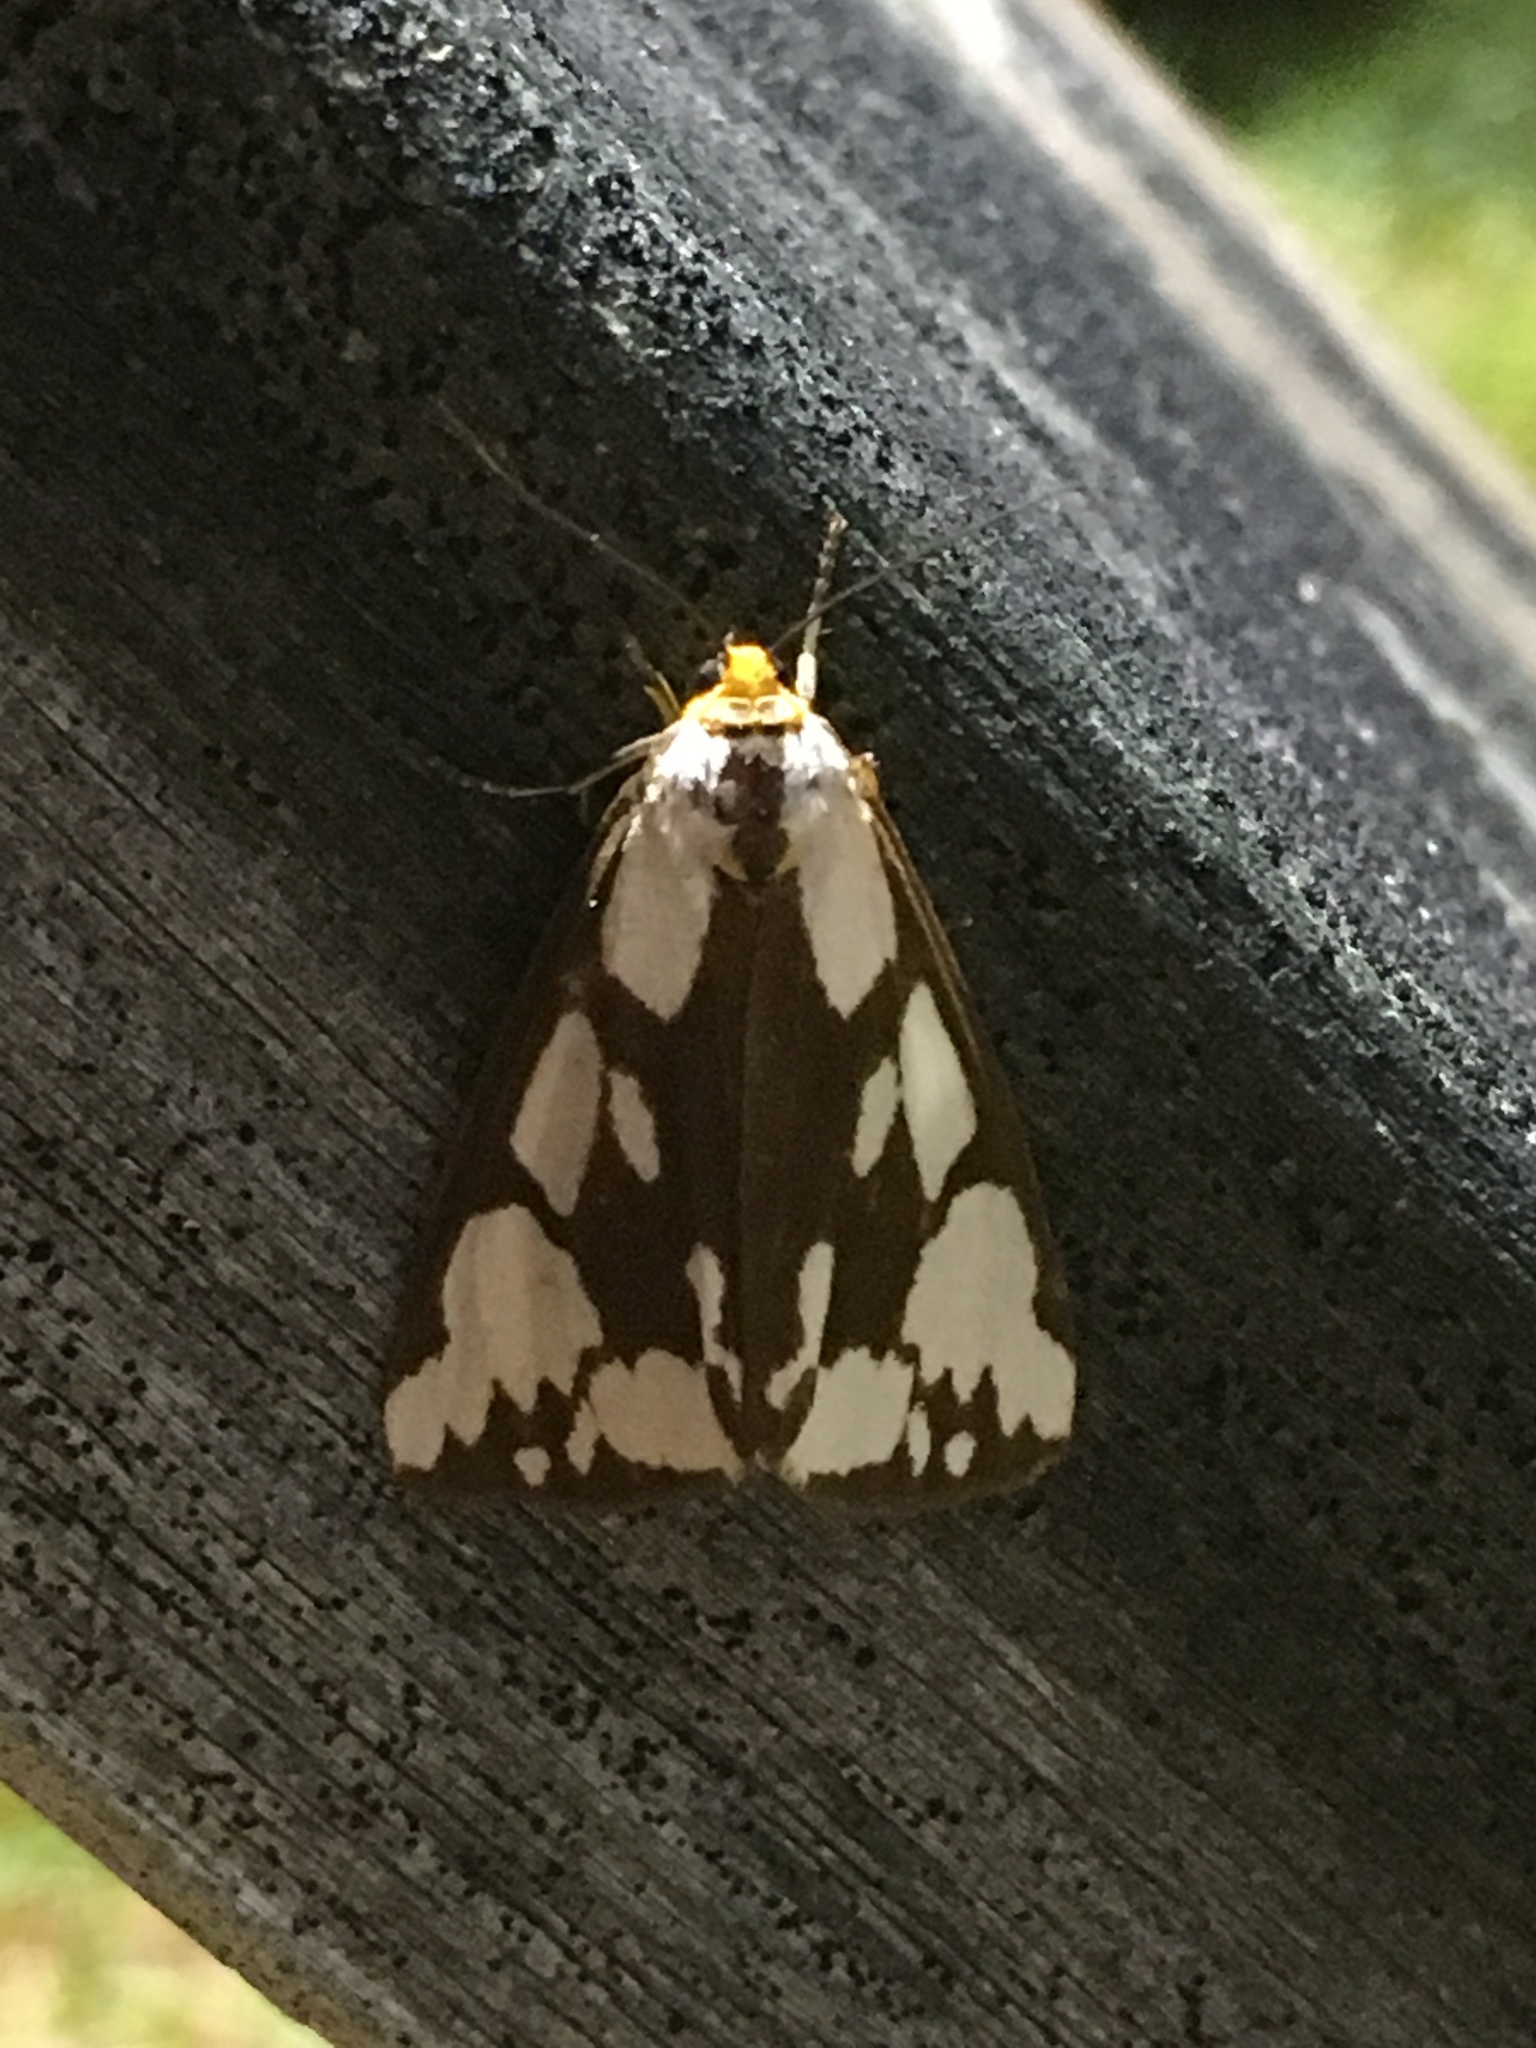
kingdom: Animalia
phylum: Arthropoda
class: Insecta
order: Lepidoptera
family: Erebidae
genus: Haploa
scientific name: Haploa confusa
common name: Confused haploa moth
